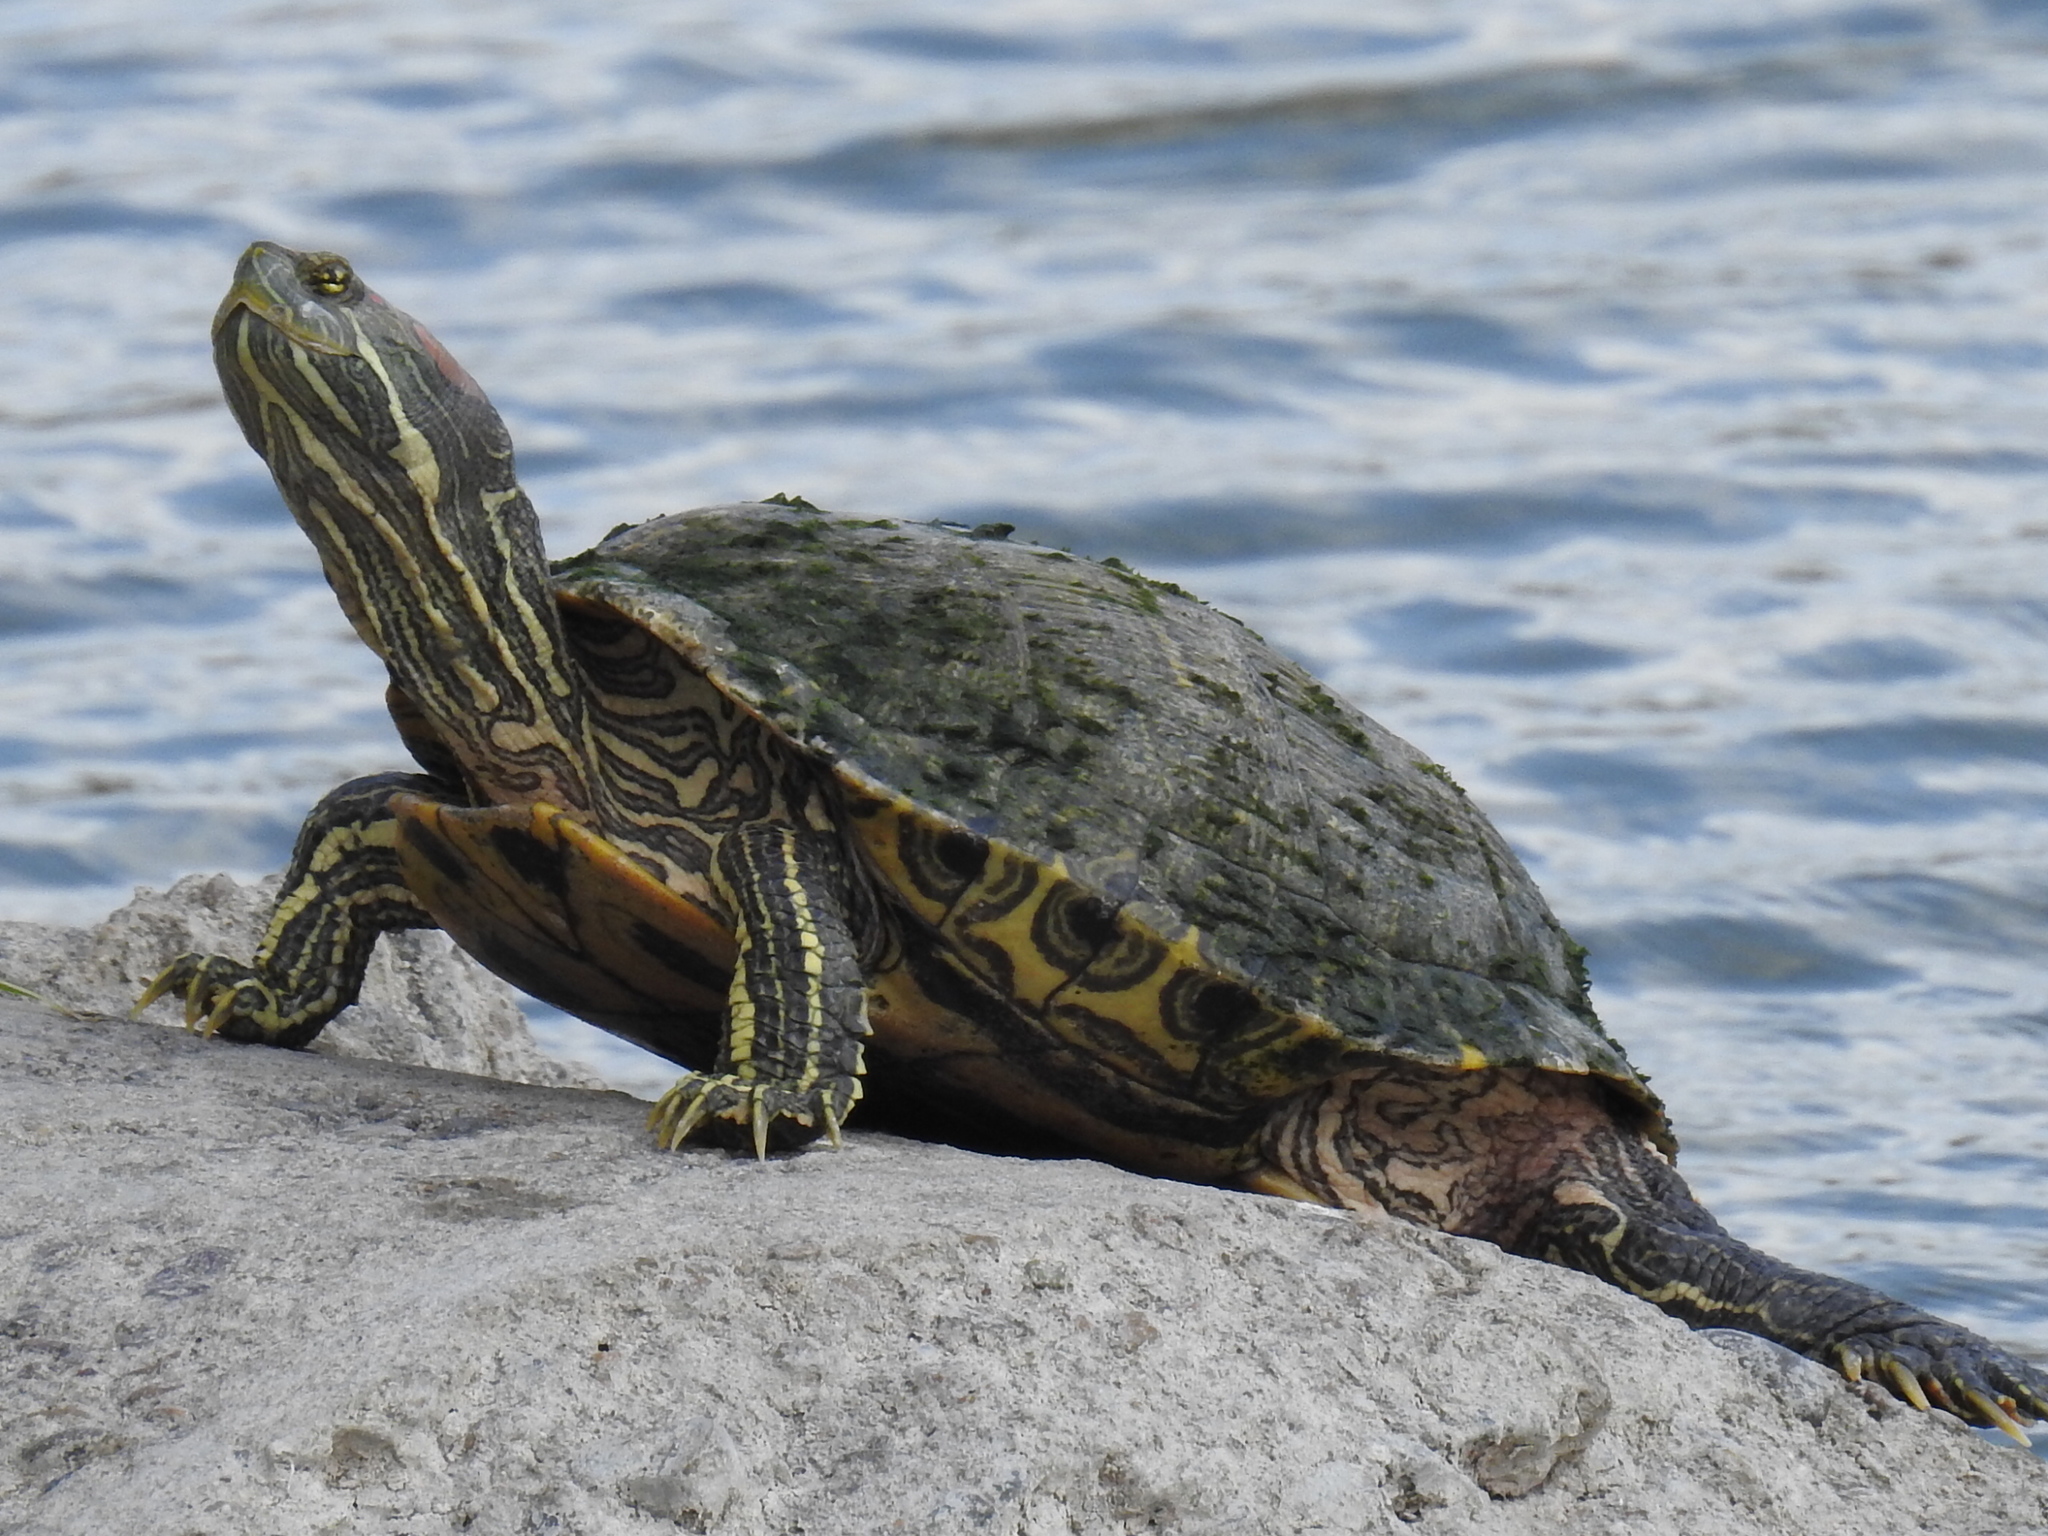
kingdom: Animalia
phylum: Chordata
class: Testudines
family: Emydidae
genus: Trachemys
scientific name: Trachemys scripta
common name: Slider
